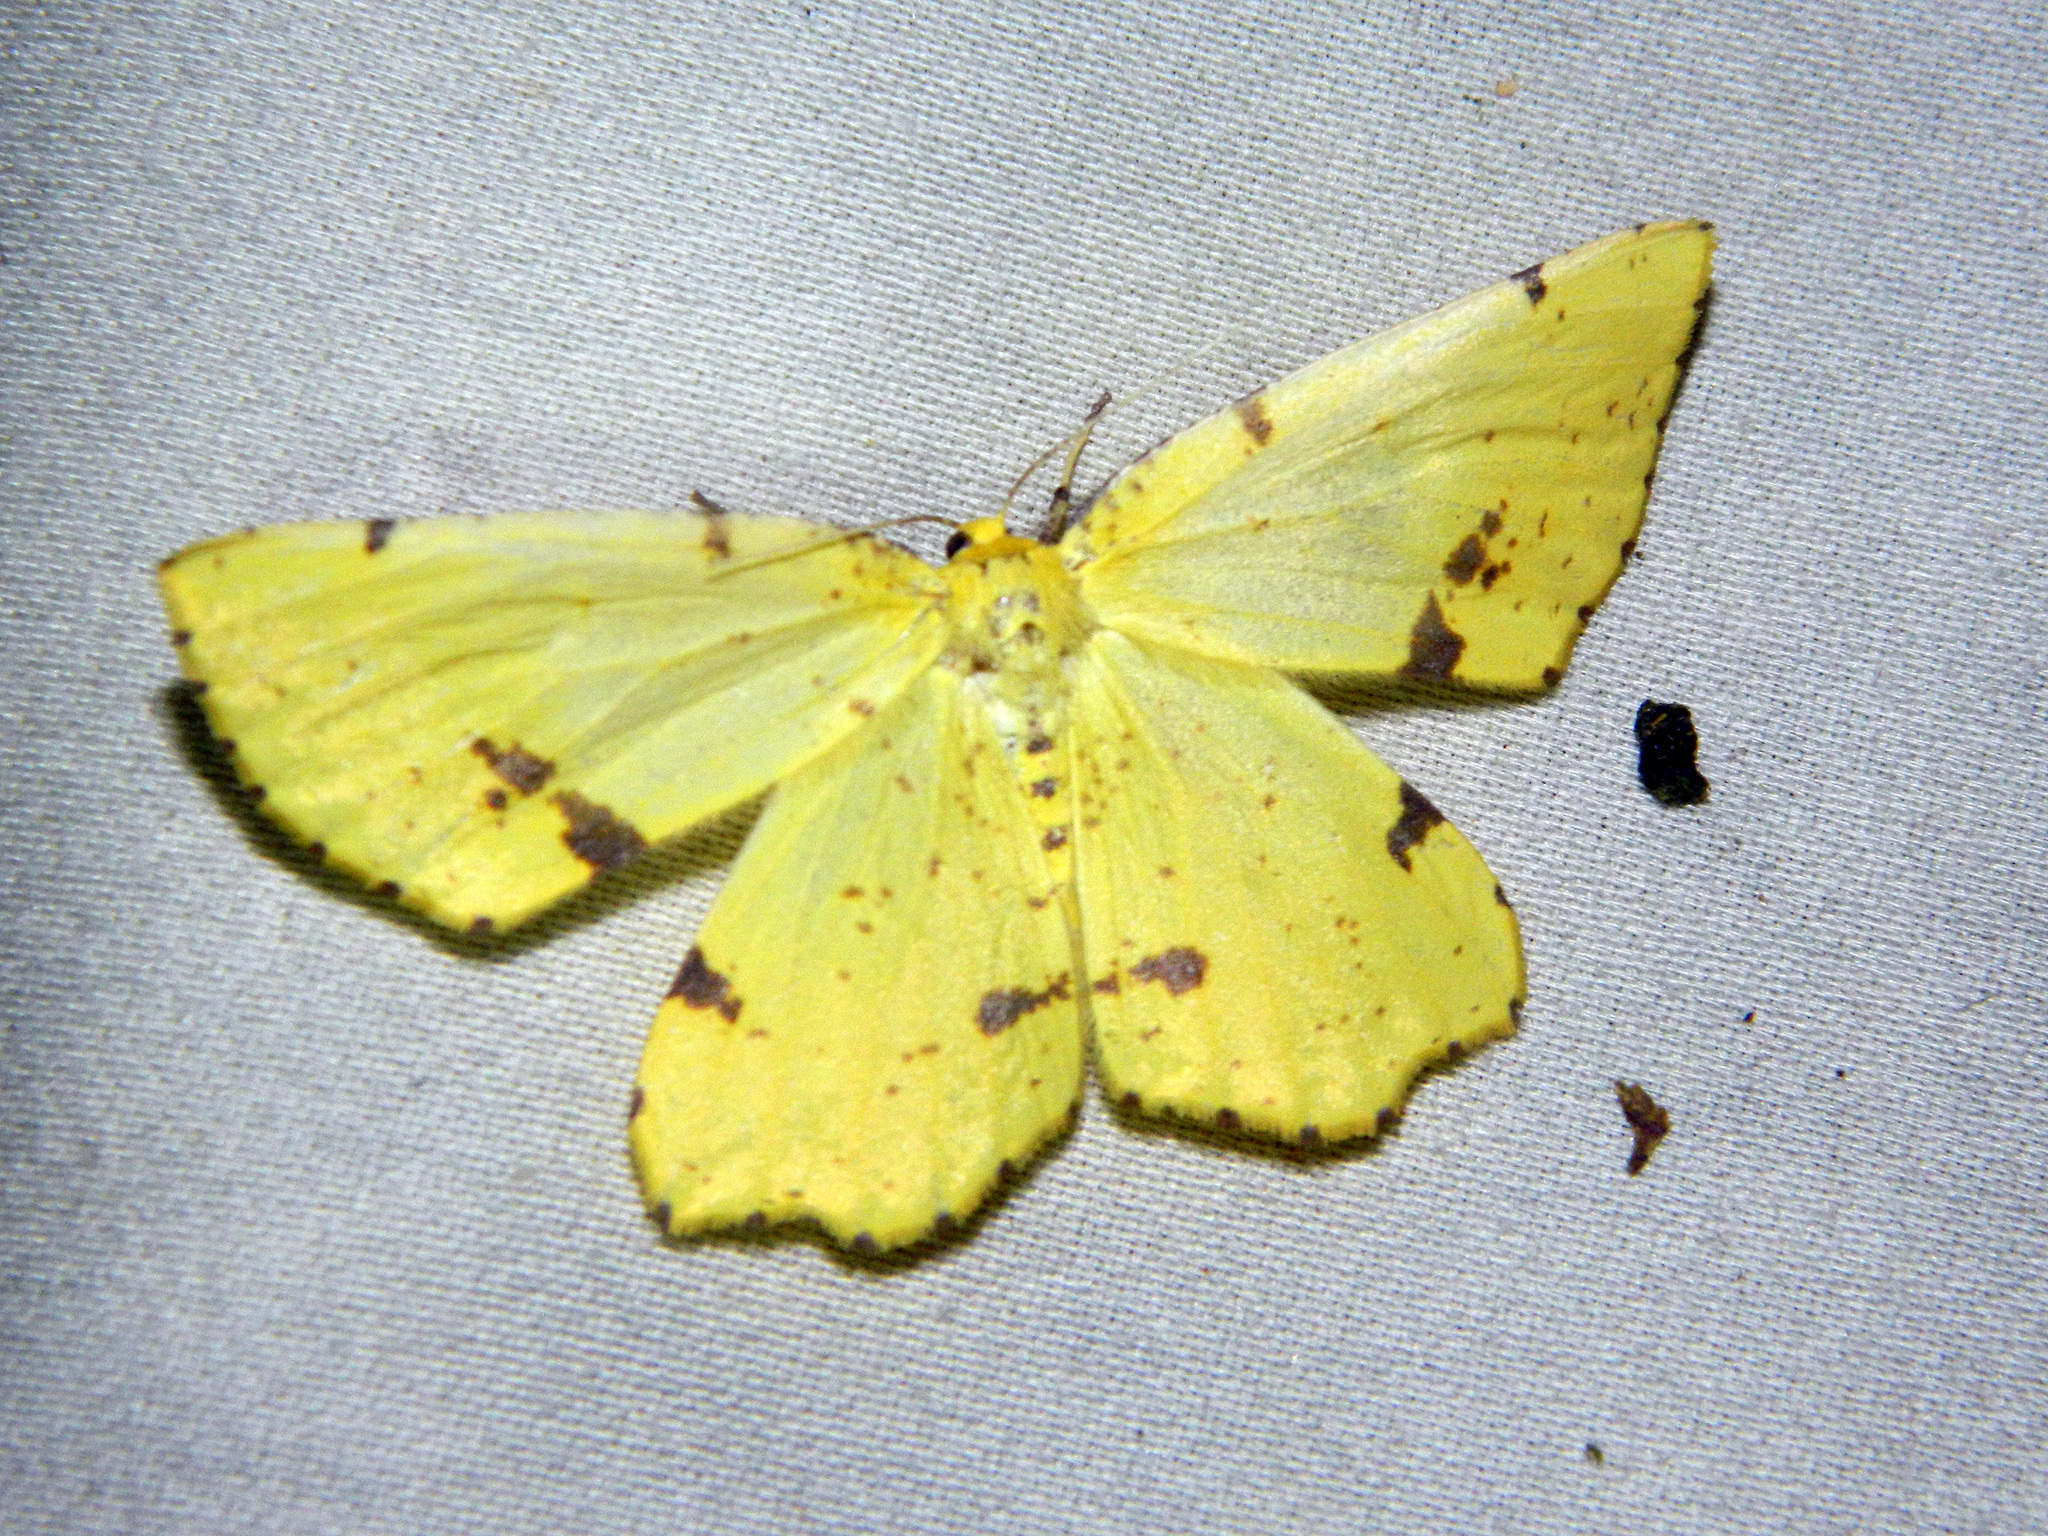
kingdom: Animalia
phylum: Arthropoda
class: Insecta
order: Lepidoptera
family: Geometridae
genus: Xanthotype
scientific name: Xanthotype
